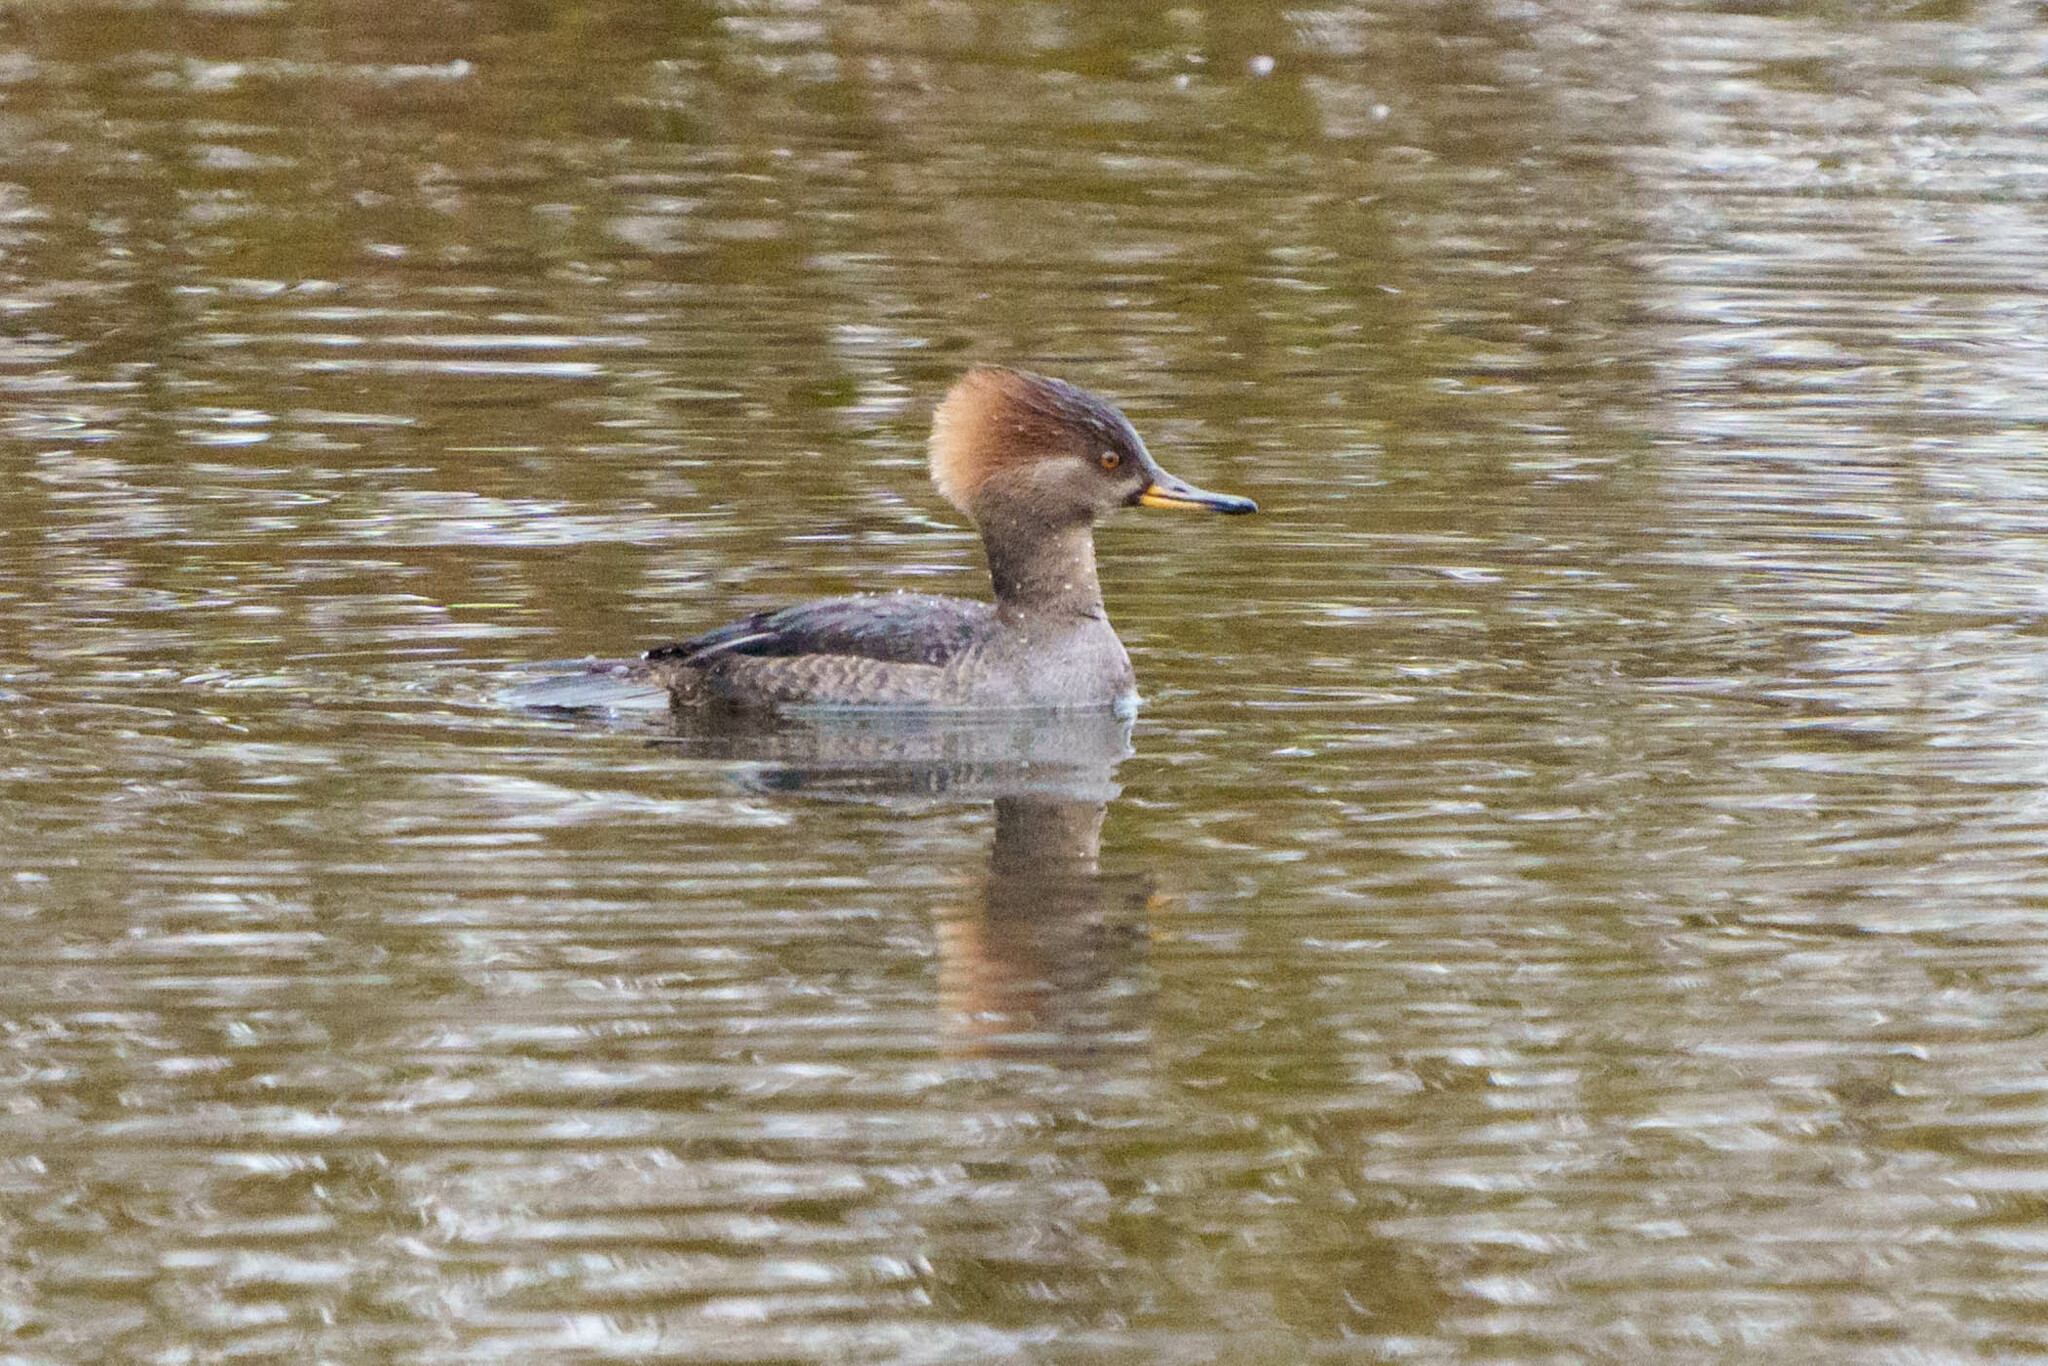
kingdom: Animalia
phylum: Chordata
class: Aves
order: Anseriformes
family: Anatidae
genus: Lophodytes
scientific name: Lophodytes cucullatus
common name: Hooded merganser
